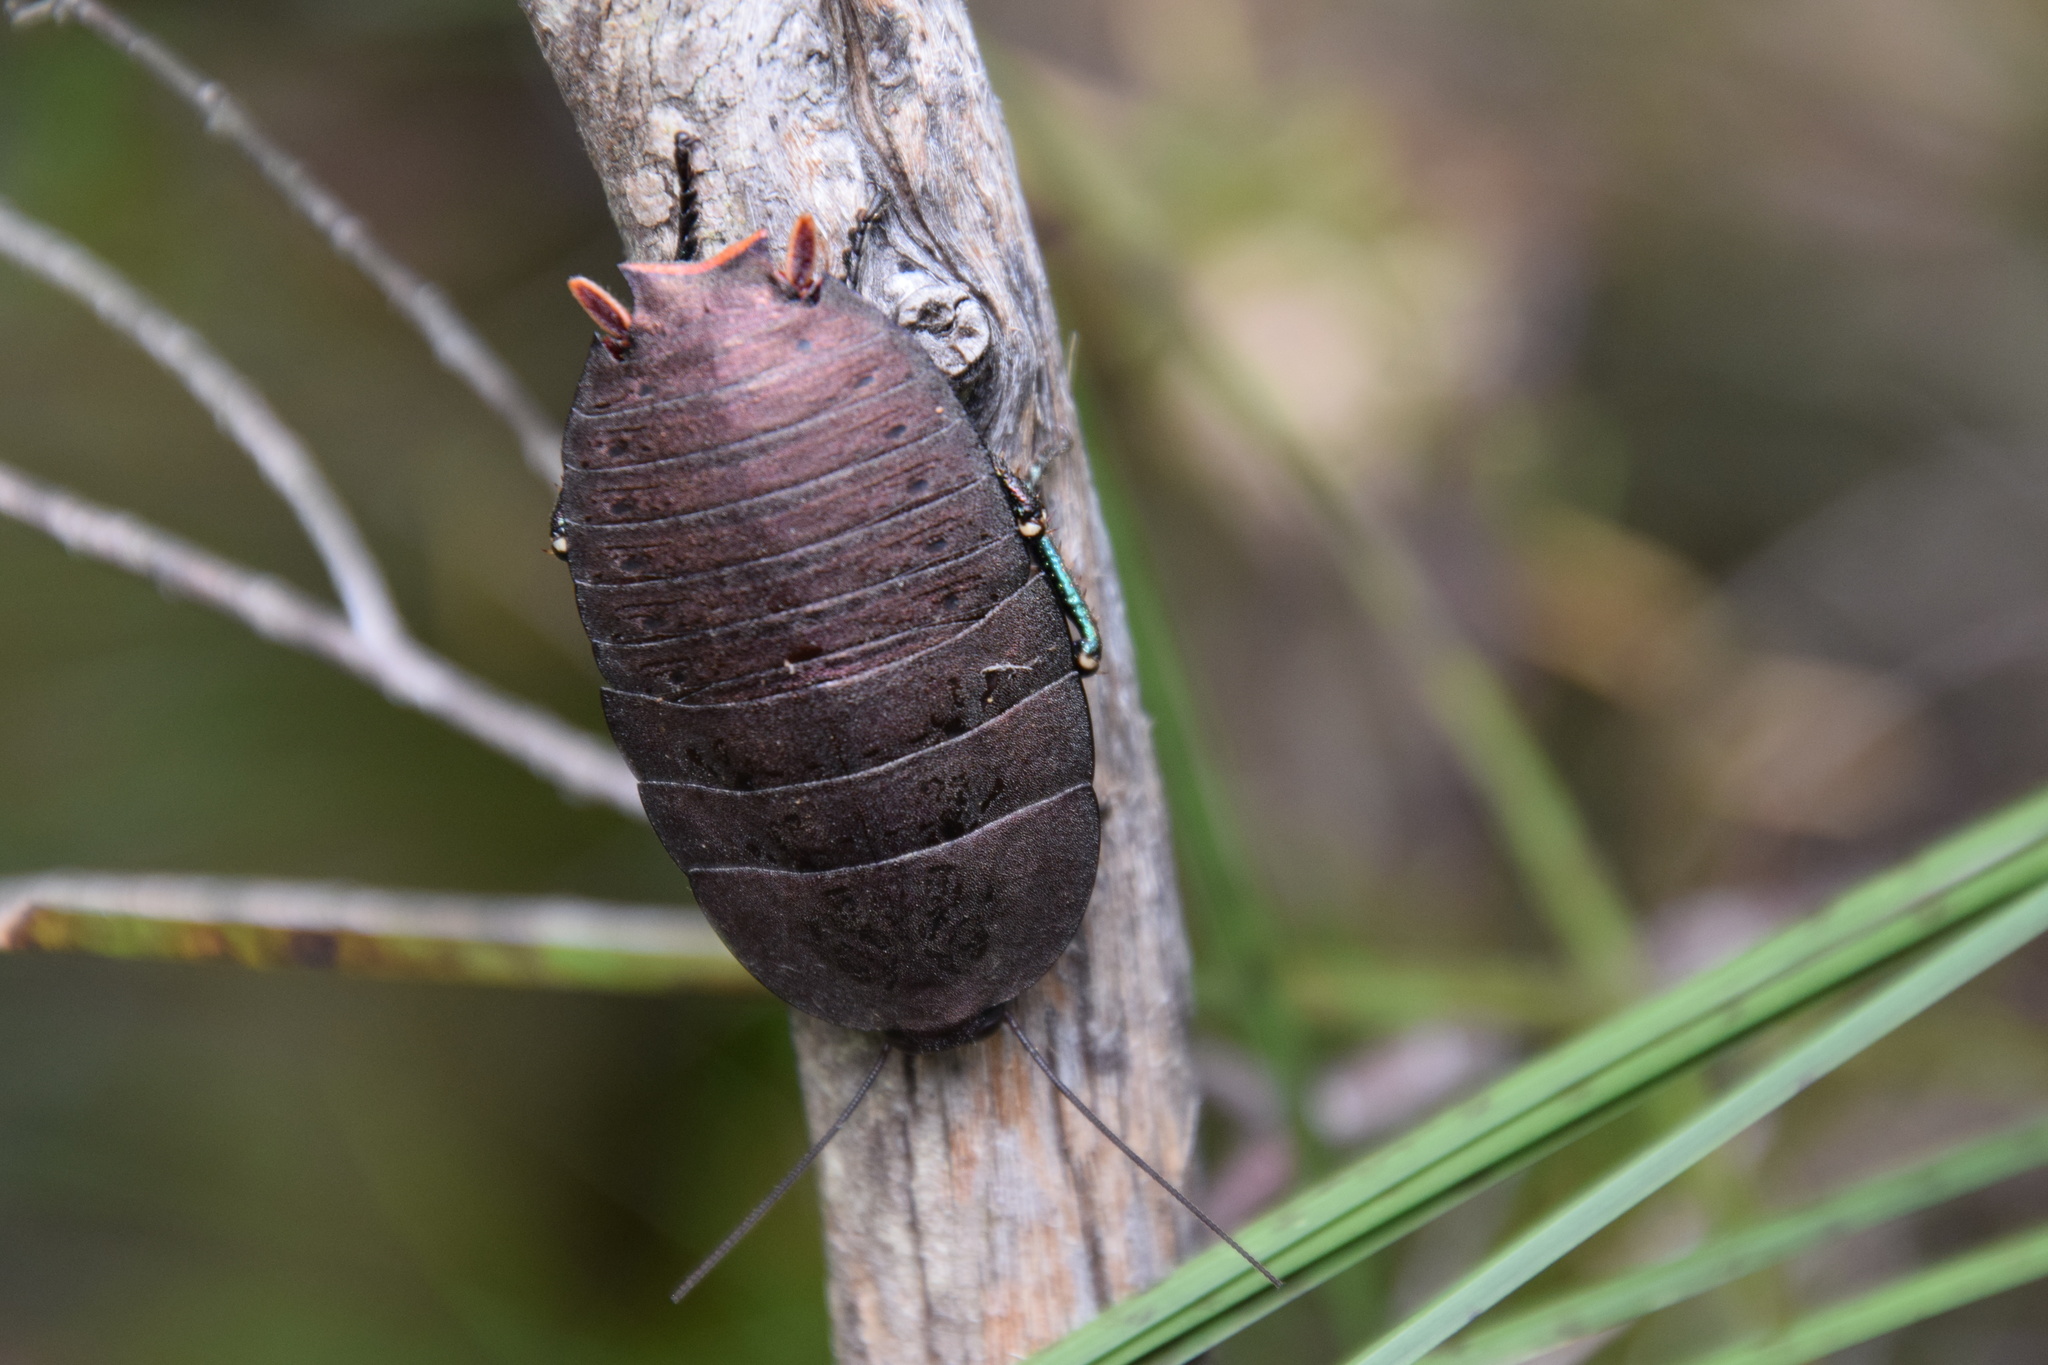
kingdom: Animalia
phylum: Arthropoda
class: Insecta
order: Blattodea
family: Blattidae
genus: Polyzosteria
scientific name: Polyzosteria invisa
